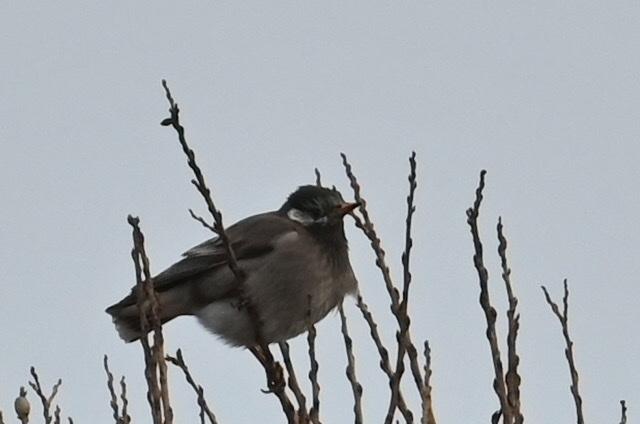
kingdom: Animalia
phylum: Chordata
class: Aves
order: Passeriformes
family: Sturnidae
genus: Spodiopsar
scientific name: Spodiopsar cineraceus
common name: White-cheeked starling
